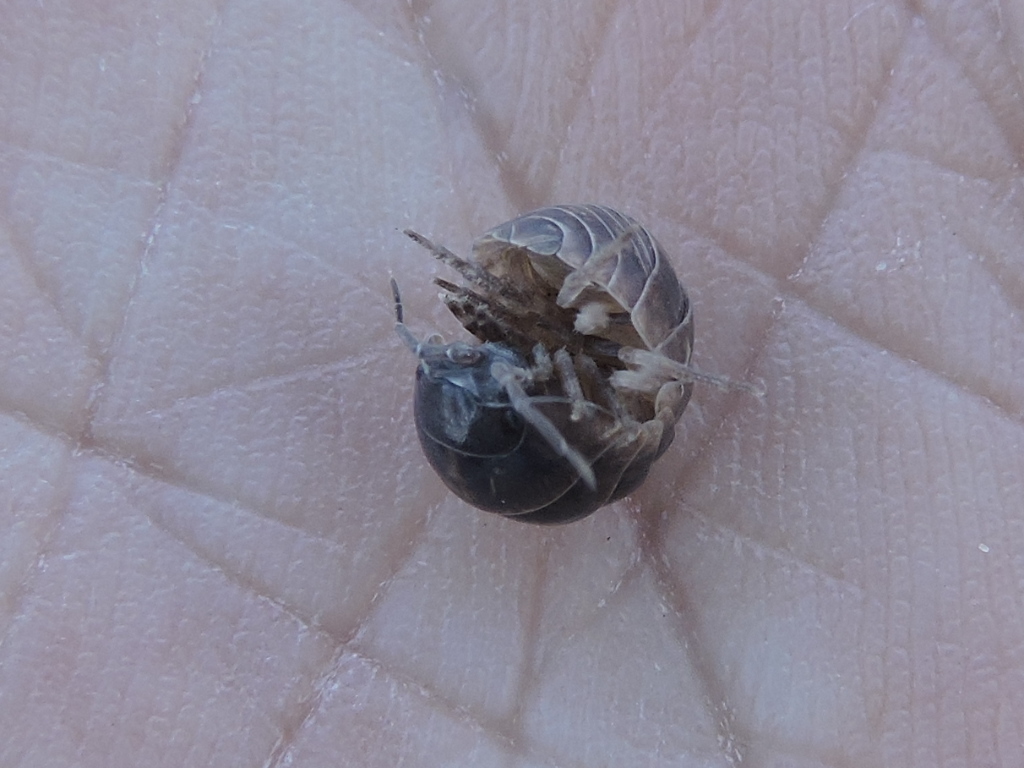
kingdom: Animalia
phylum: Arthropoda
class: Malacostraca
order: Isopoda
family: Armadillidiidae
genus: Armadillidium
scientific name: Armadillidium vulgare
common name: Common pill woodlouse
